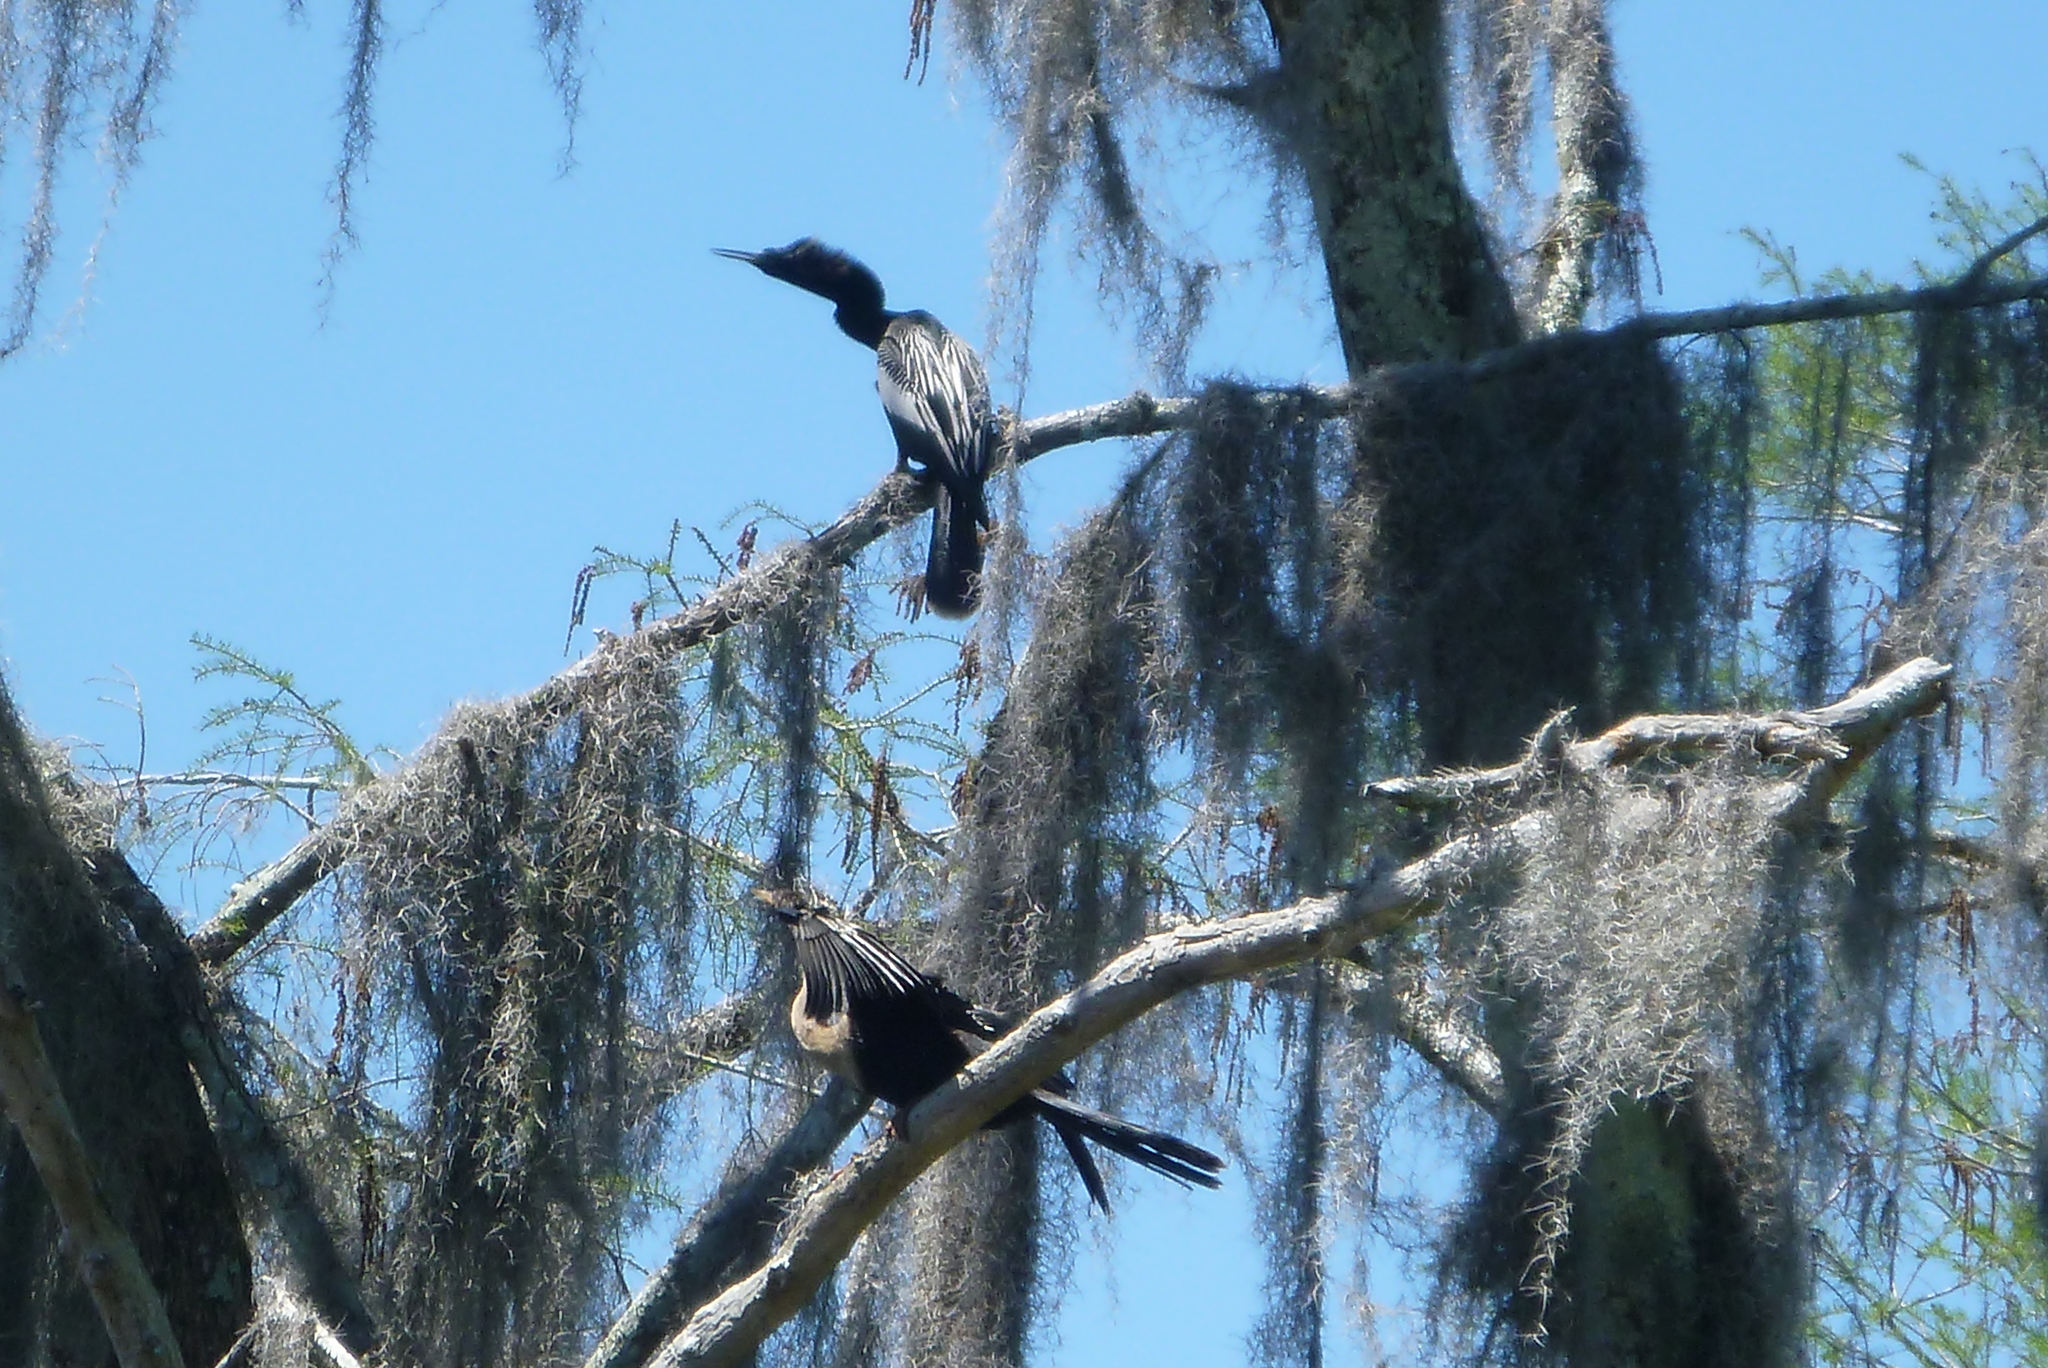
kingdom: Animalia
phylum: Chordata
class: Aves
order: Suliformes
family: Anhingidae
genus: Anhinga
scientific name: Anhinga anhinga
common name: Anhinga
